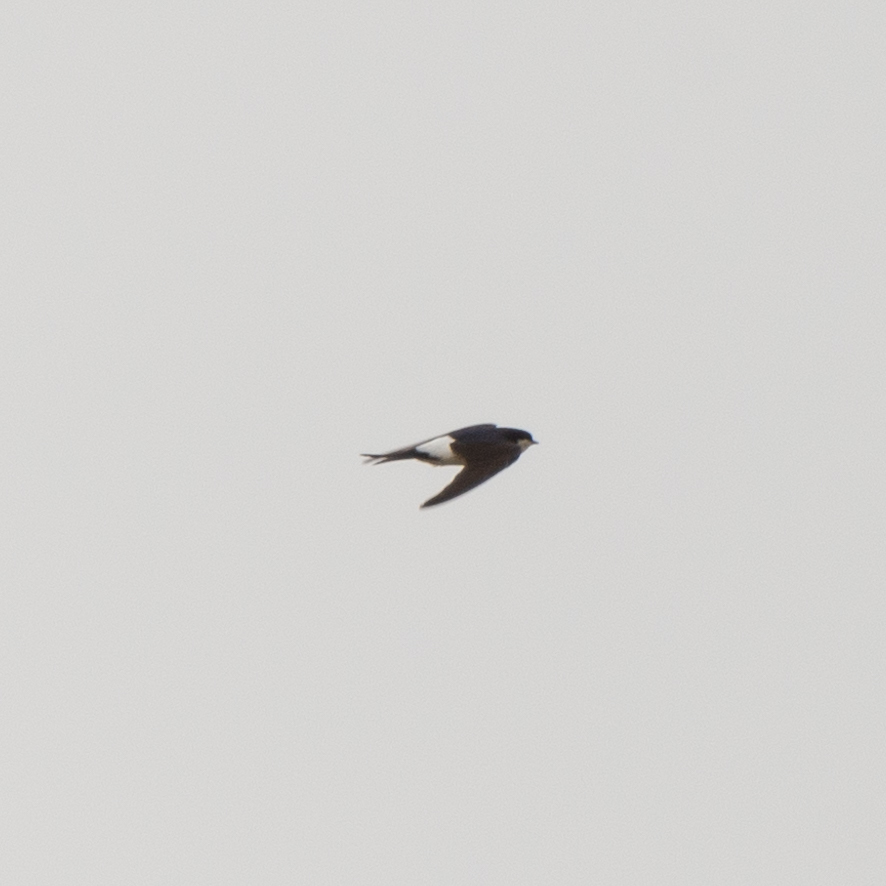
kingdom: Animalia
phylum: Chordata
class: Aves
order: Passeriformes
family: Hirundinidae
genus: Delichon
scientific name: Delichon urbicum
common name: Common house martin
